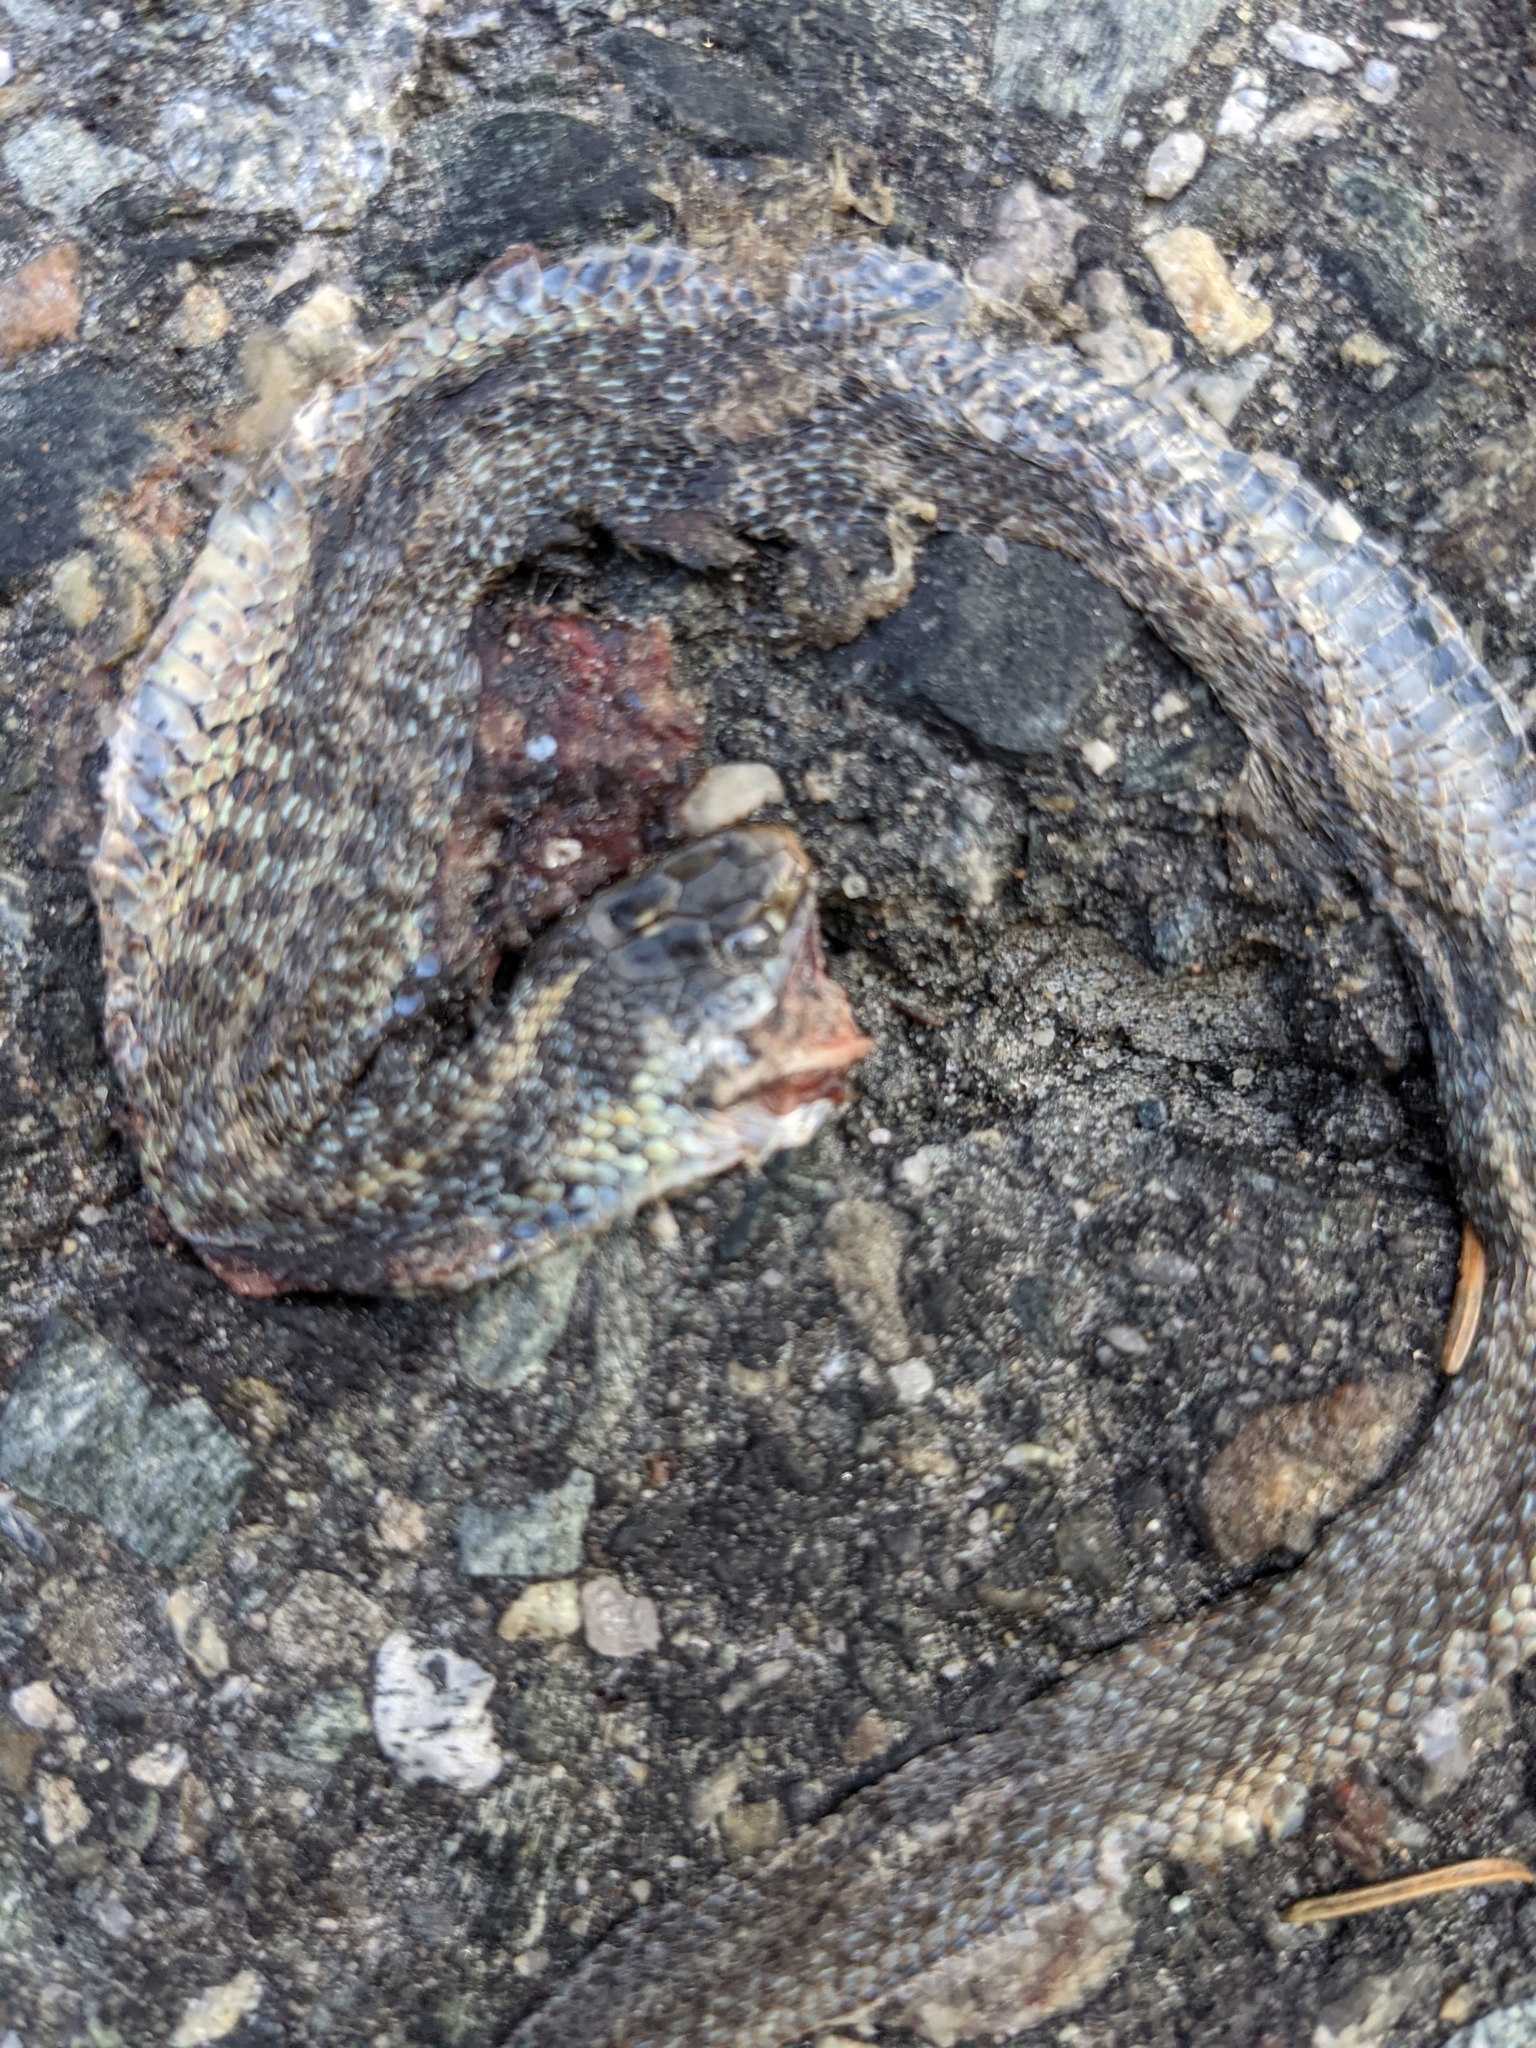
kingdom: Animalia
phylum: Chordata
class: Squamata
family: Colubridae
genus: Thamnophis
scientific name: Thamnophis sirtalis
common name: Common garter snake
